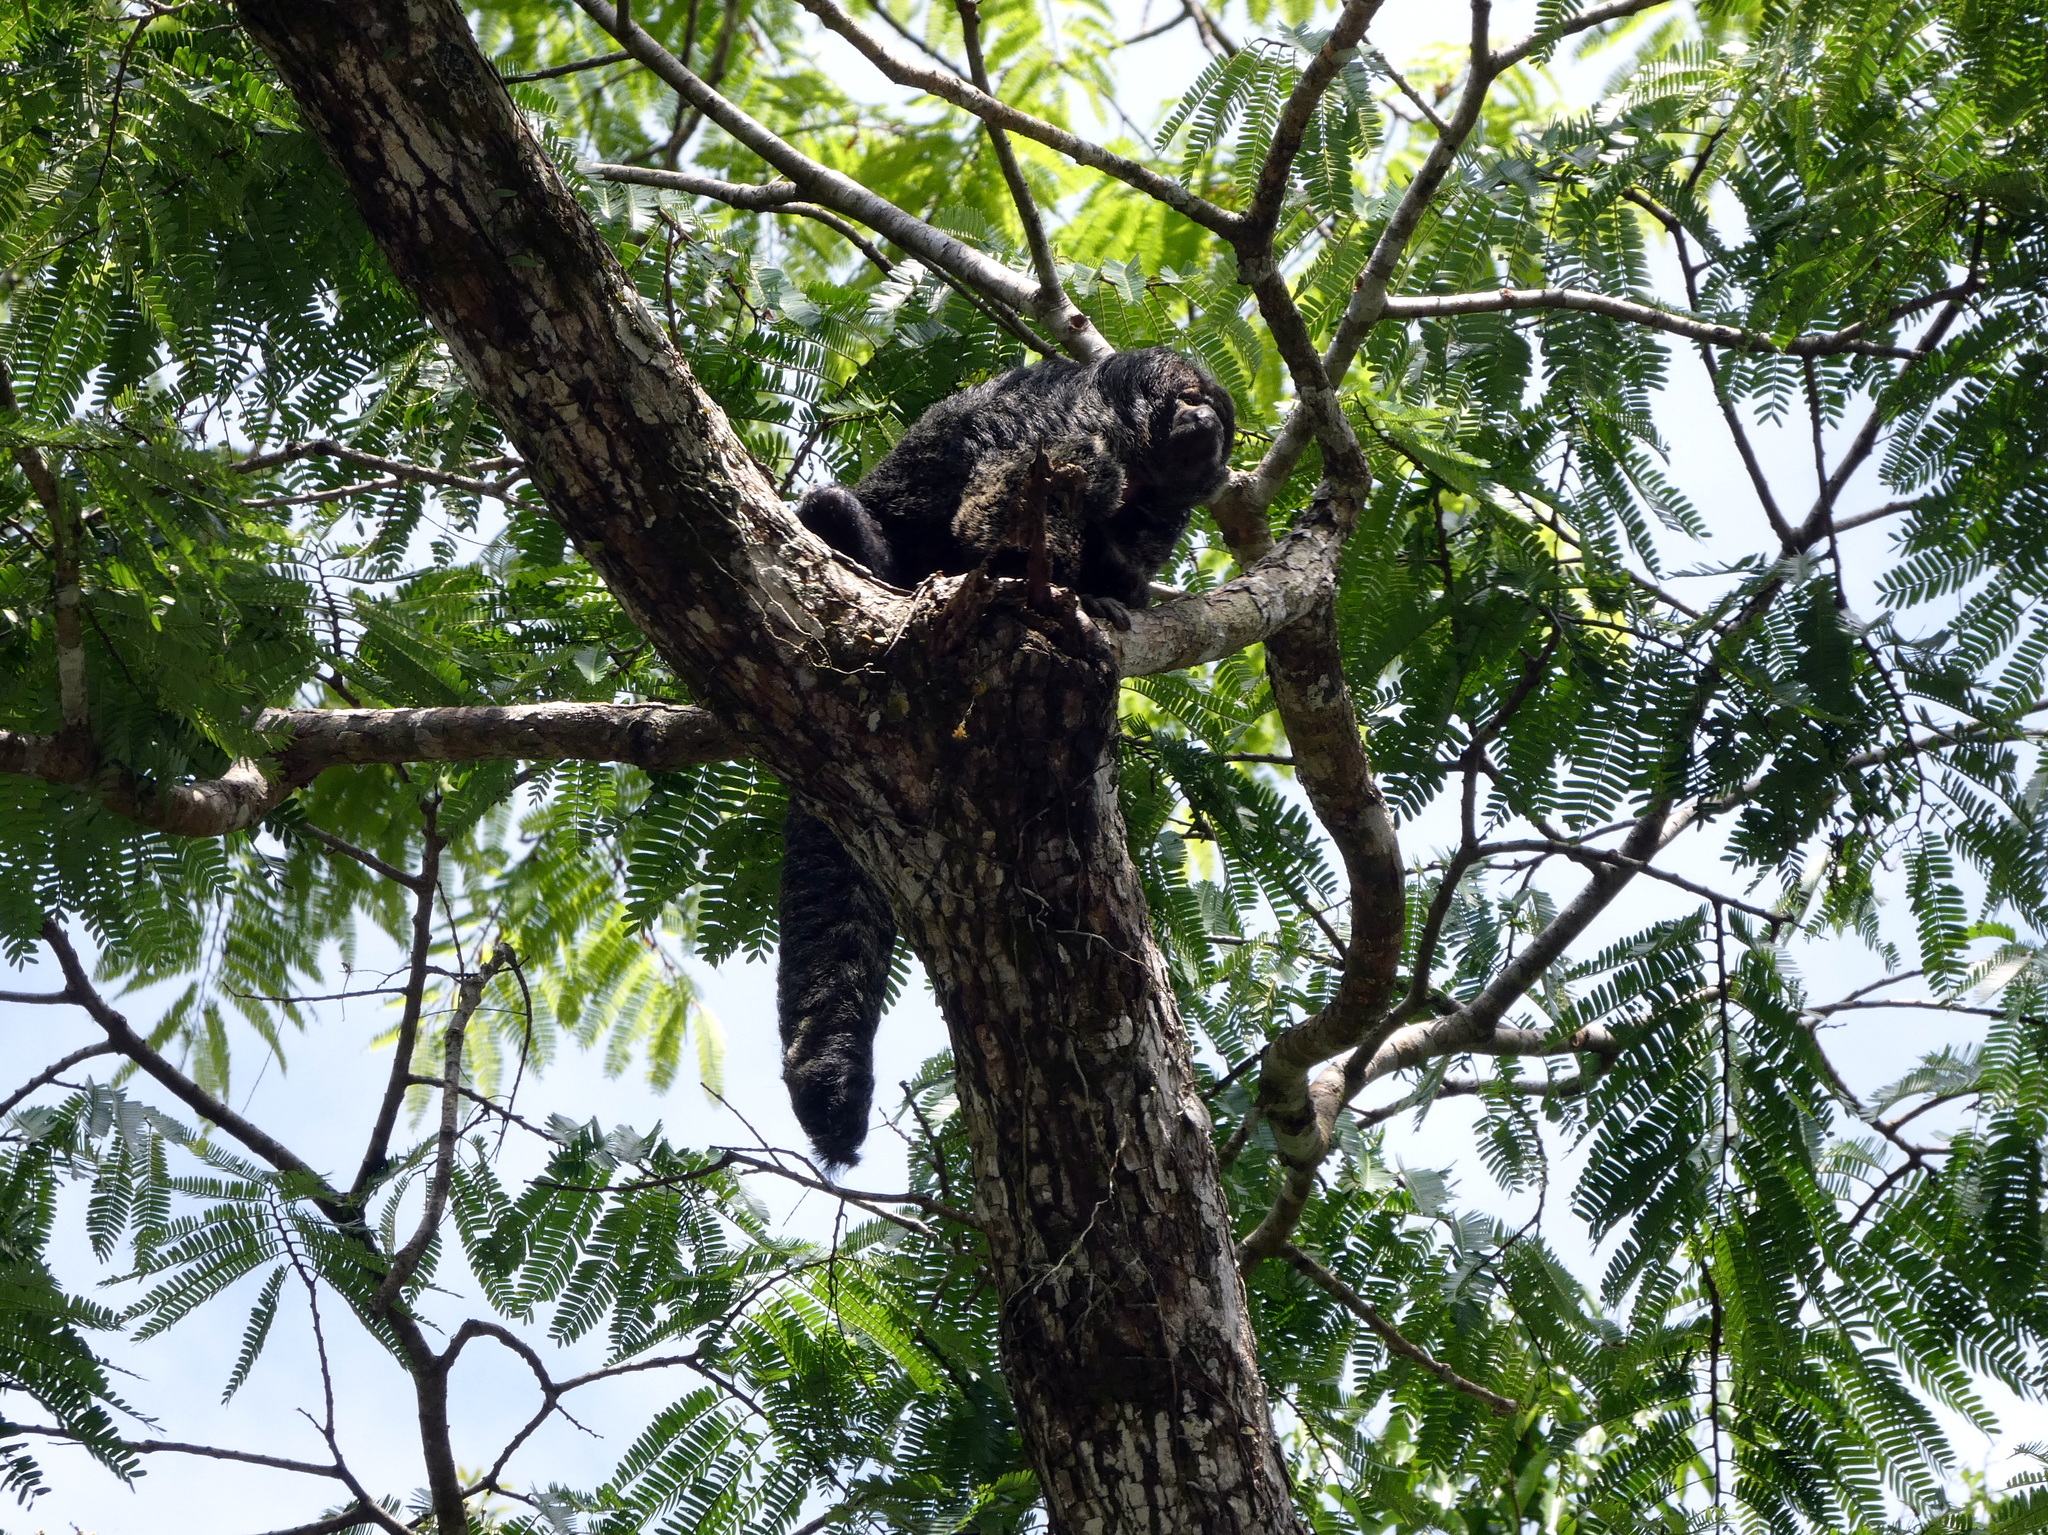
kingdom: Animalia
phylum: Chordata
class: Mammalia
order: Primates
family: Pitheciidae
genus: Pithecia
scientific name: Pithecia milleri
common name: Miller's saki
